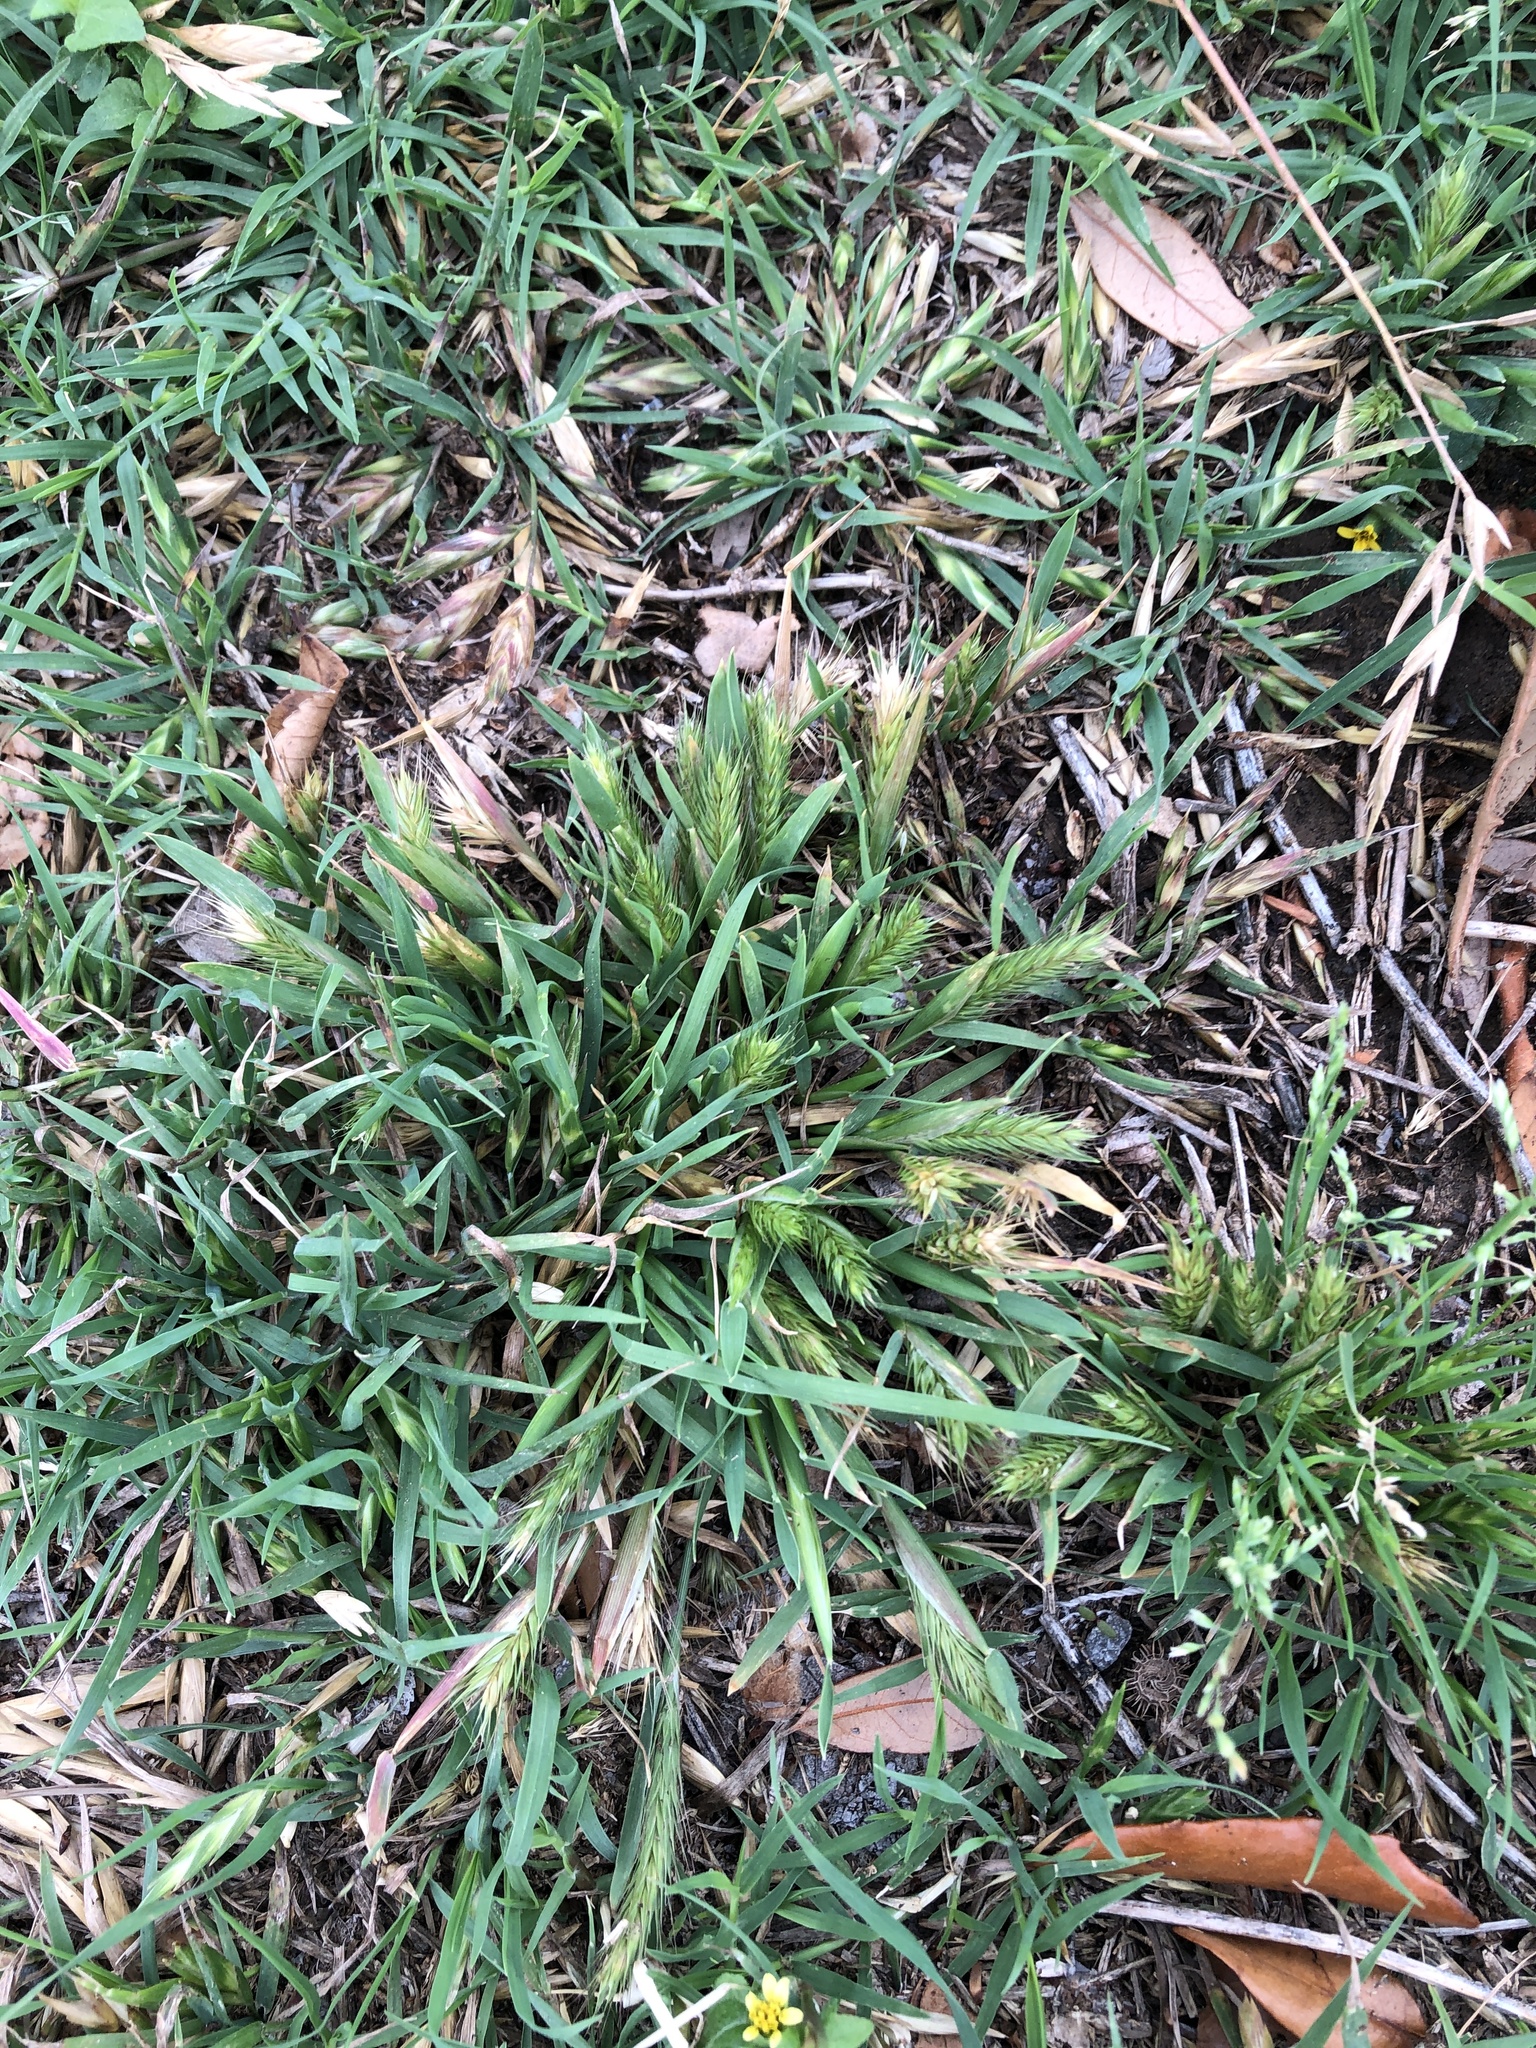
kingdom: Plantae
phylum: Tracheophyta
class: Liliopsida
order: Poales
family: Poaceae
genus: Hordeum
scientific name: Hordeum pusillum
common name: Little barley
